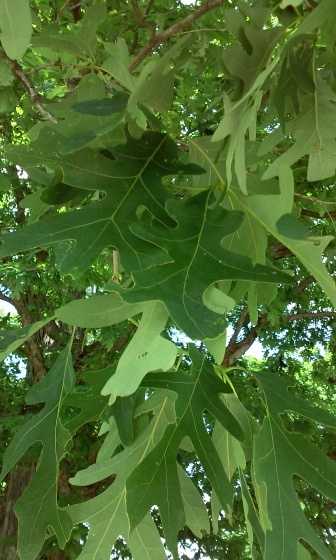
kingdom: Plantae
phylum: Tracheophyta
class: Magnoliopsida
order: Fagales
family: Fagaceae
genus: Quercus
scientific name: Quercus alba
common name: White oak
